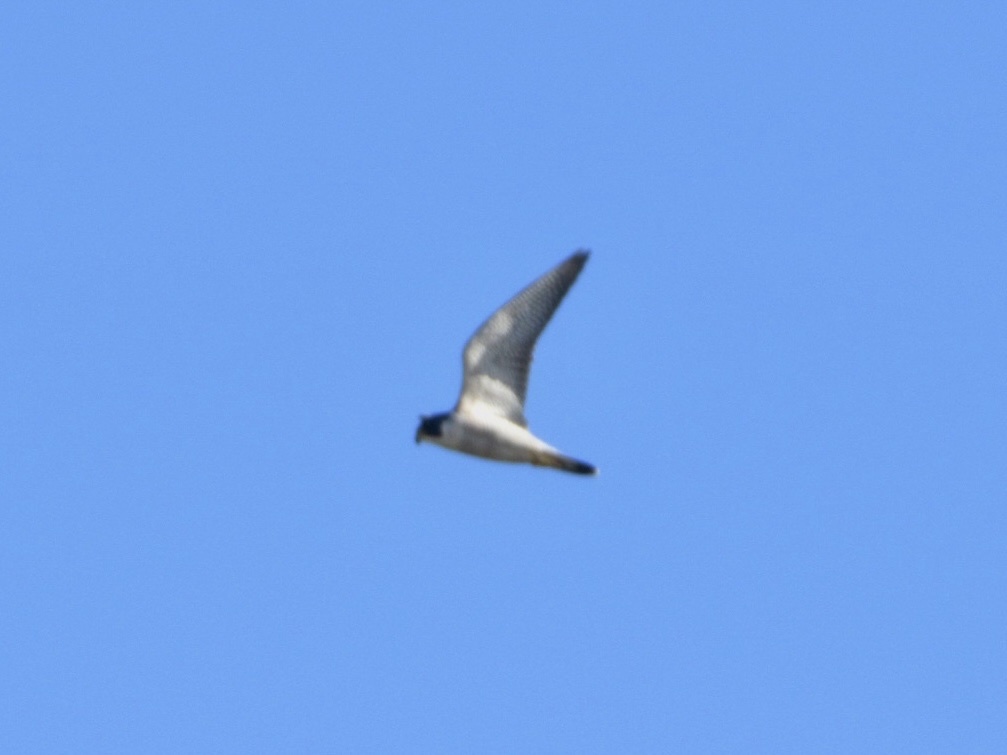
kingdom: Animalia
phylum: Chordata
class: Aves
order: Falconiformes
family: Falconidae
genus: Falco
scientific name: Falco peregrinus
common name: Peregrine falcon
